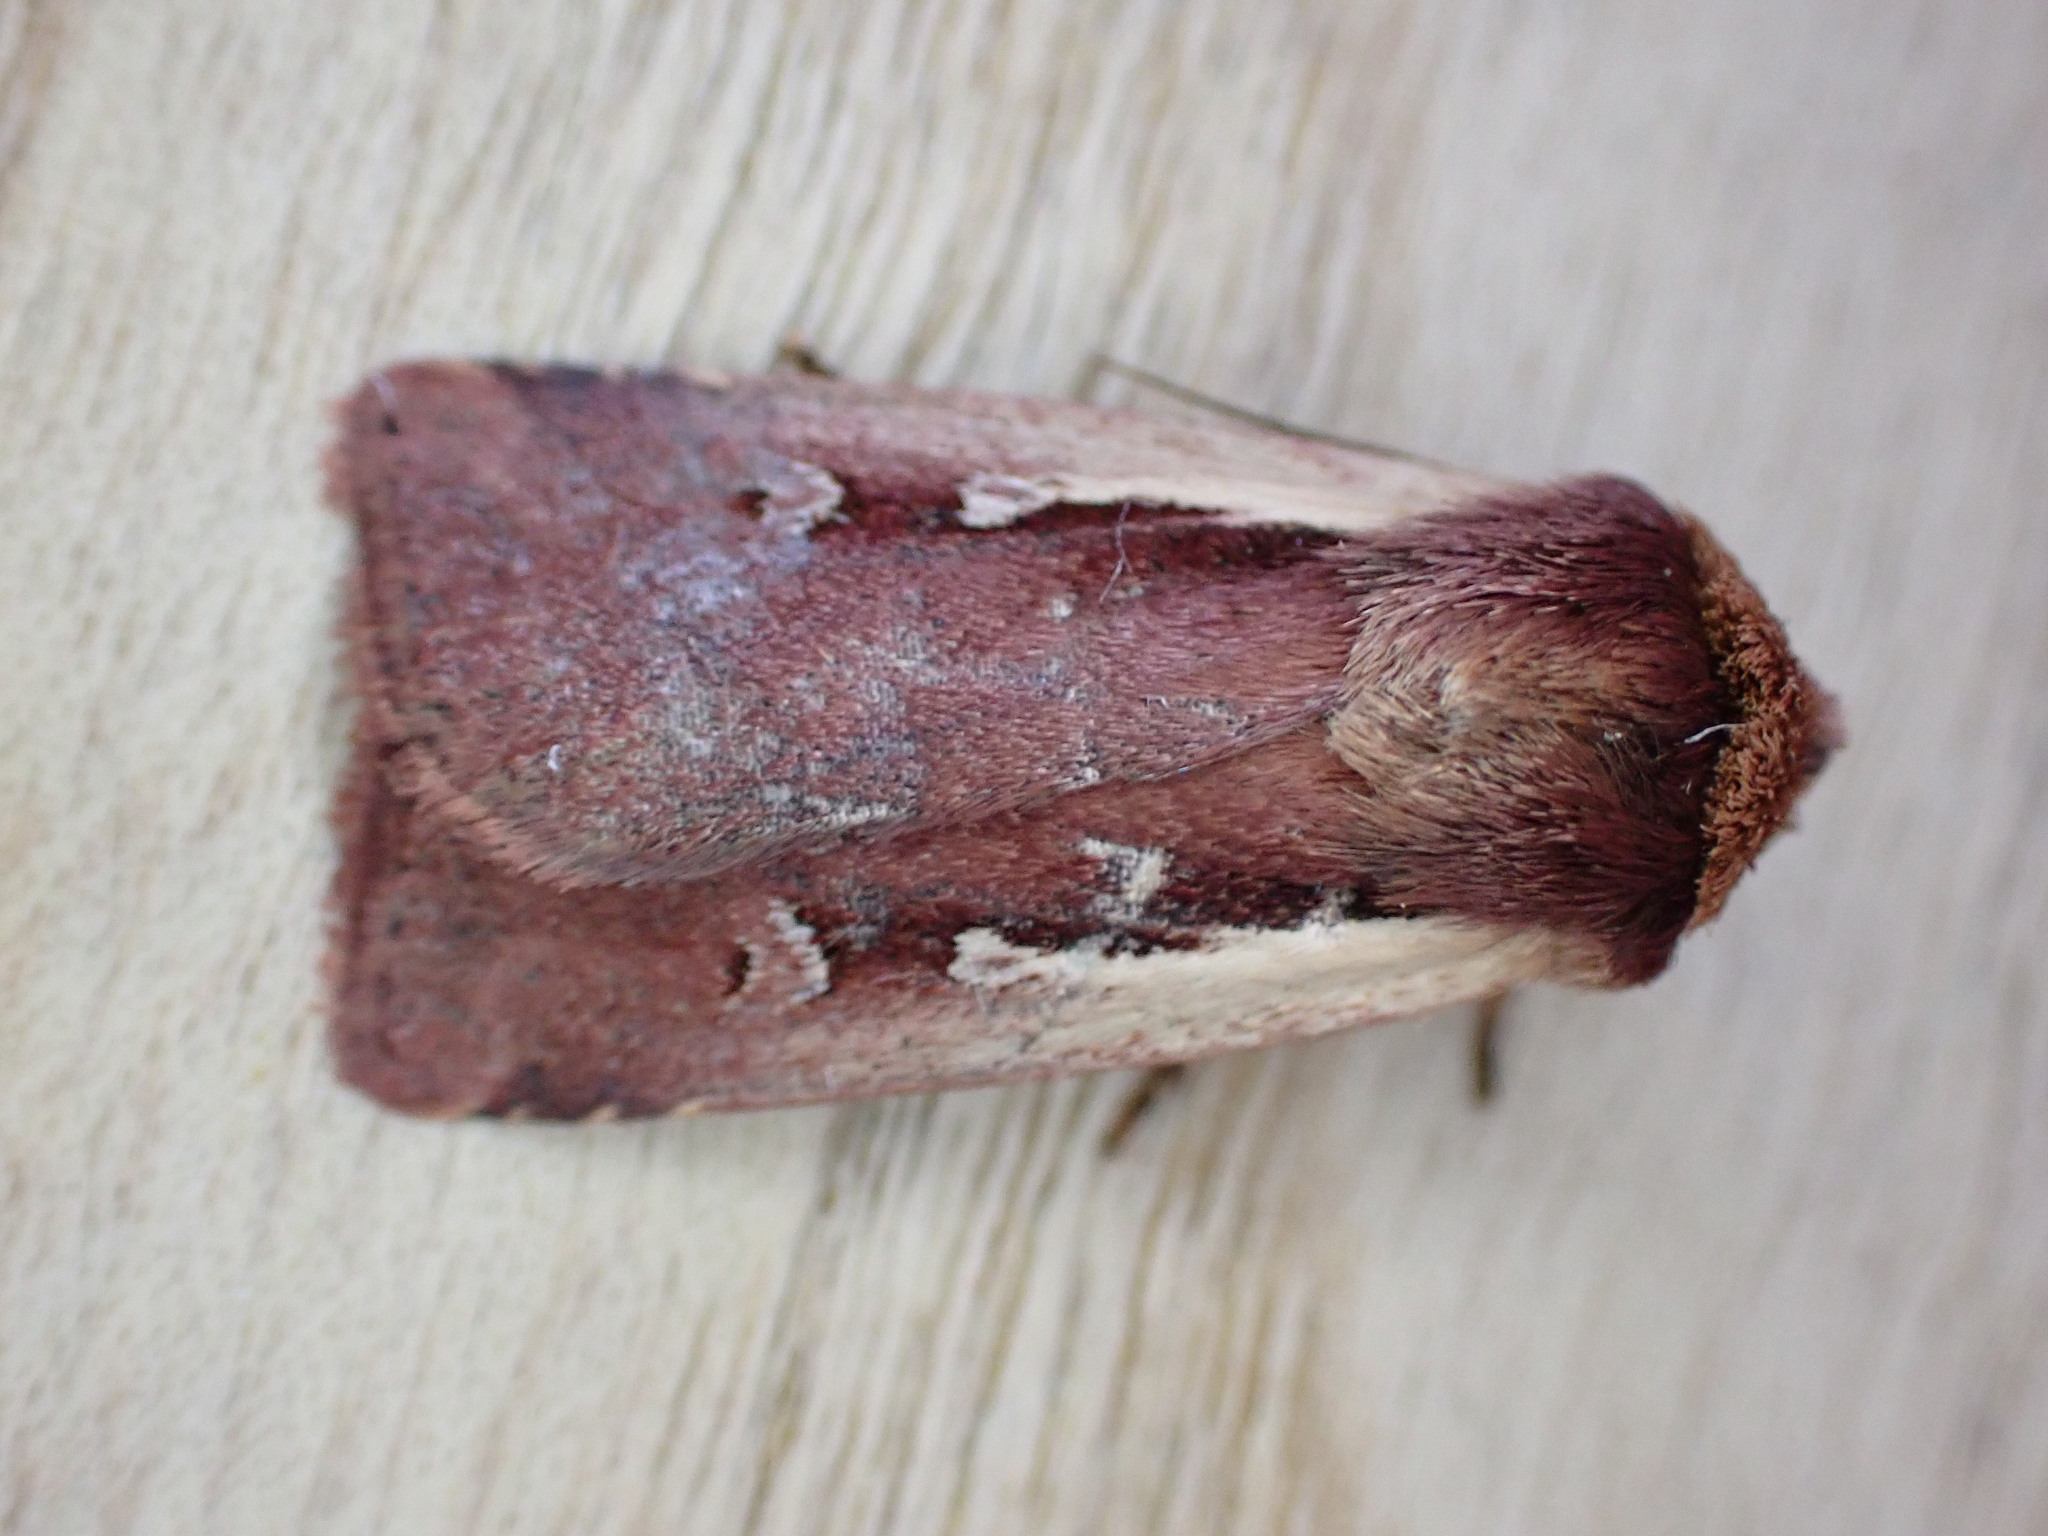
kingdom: Animalia
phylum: Arthropoda
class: Insecta
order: Lepidoptera
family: Noctuidae
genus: Ochropleura
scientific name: Ochropleura plecta
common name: Flame shoulder
